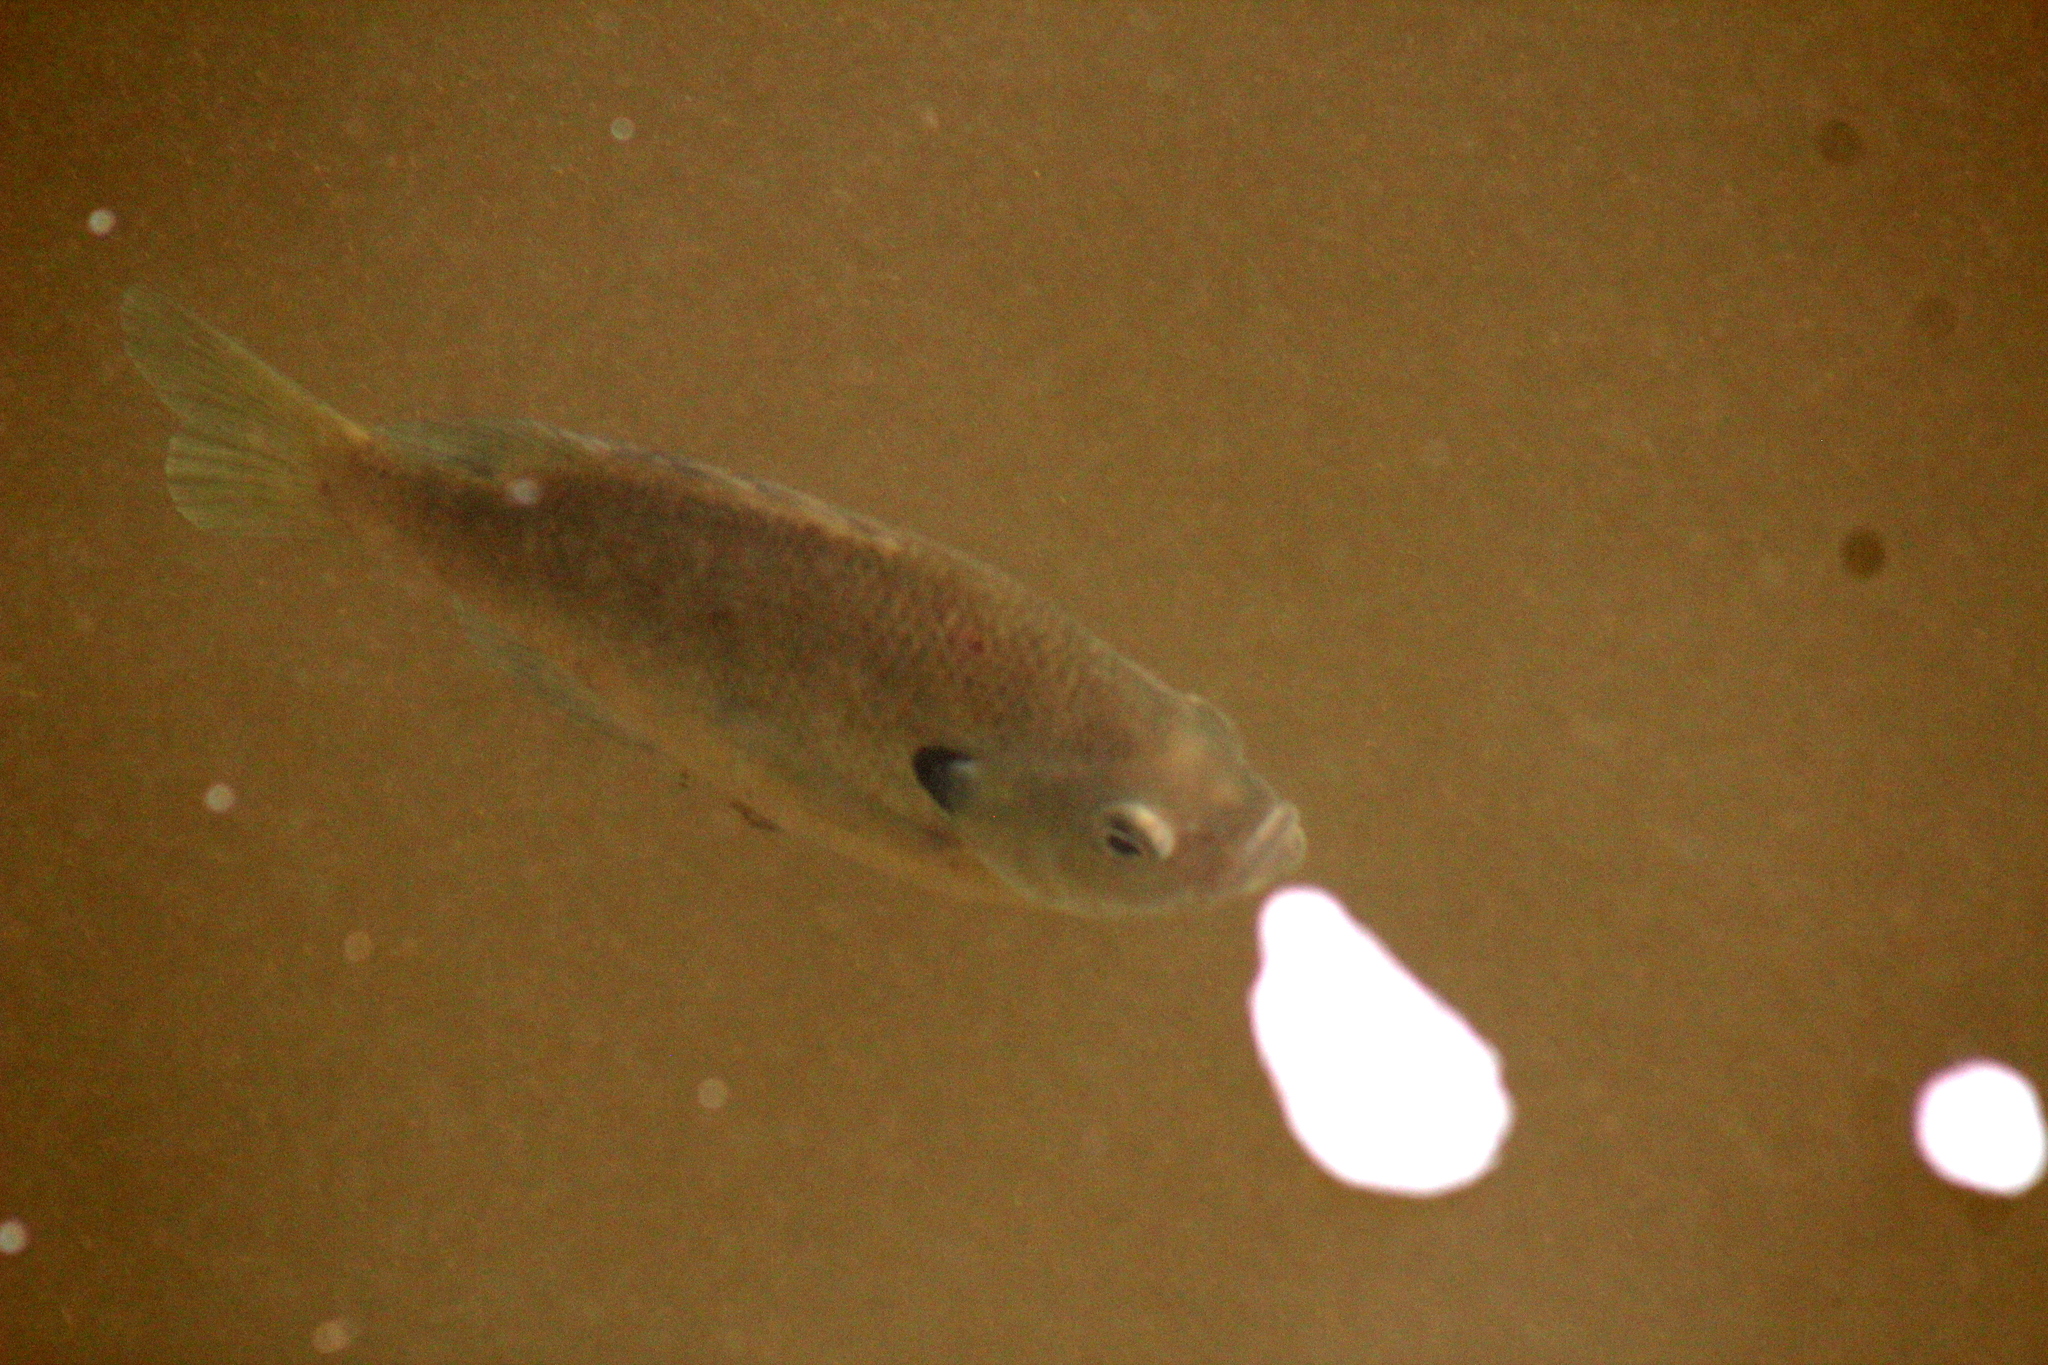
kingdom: Animalia
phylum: Chordata
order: Perciformes
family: Centrarchidae
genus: Lepomis
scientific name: Lepomis macrochirus
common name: Bluegill
